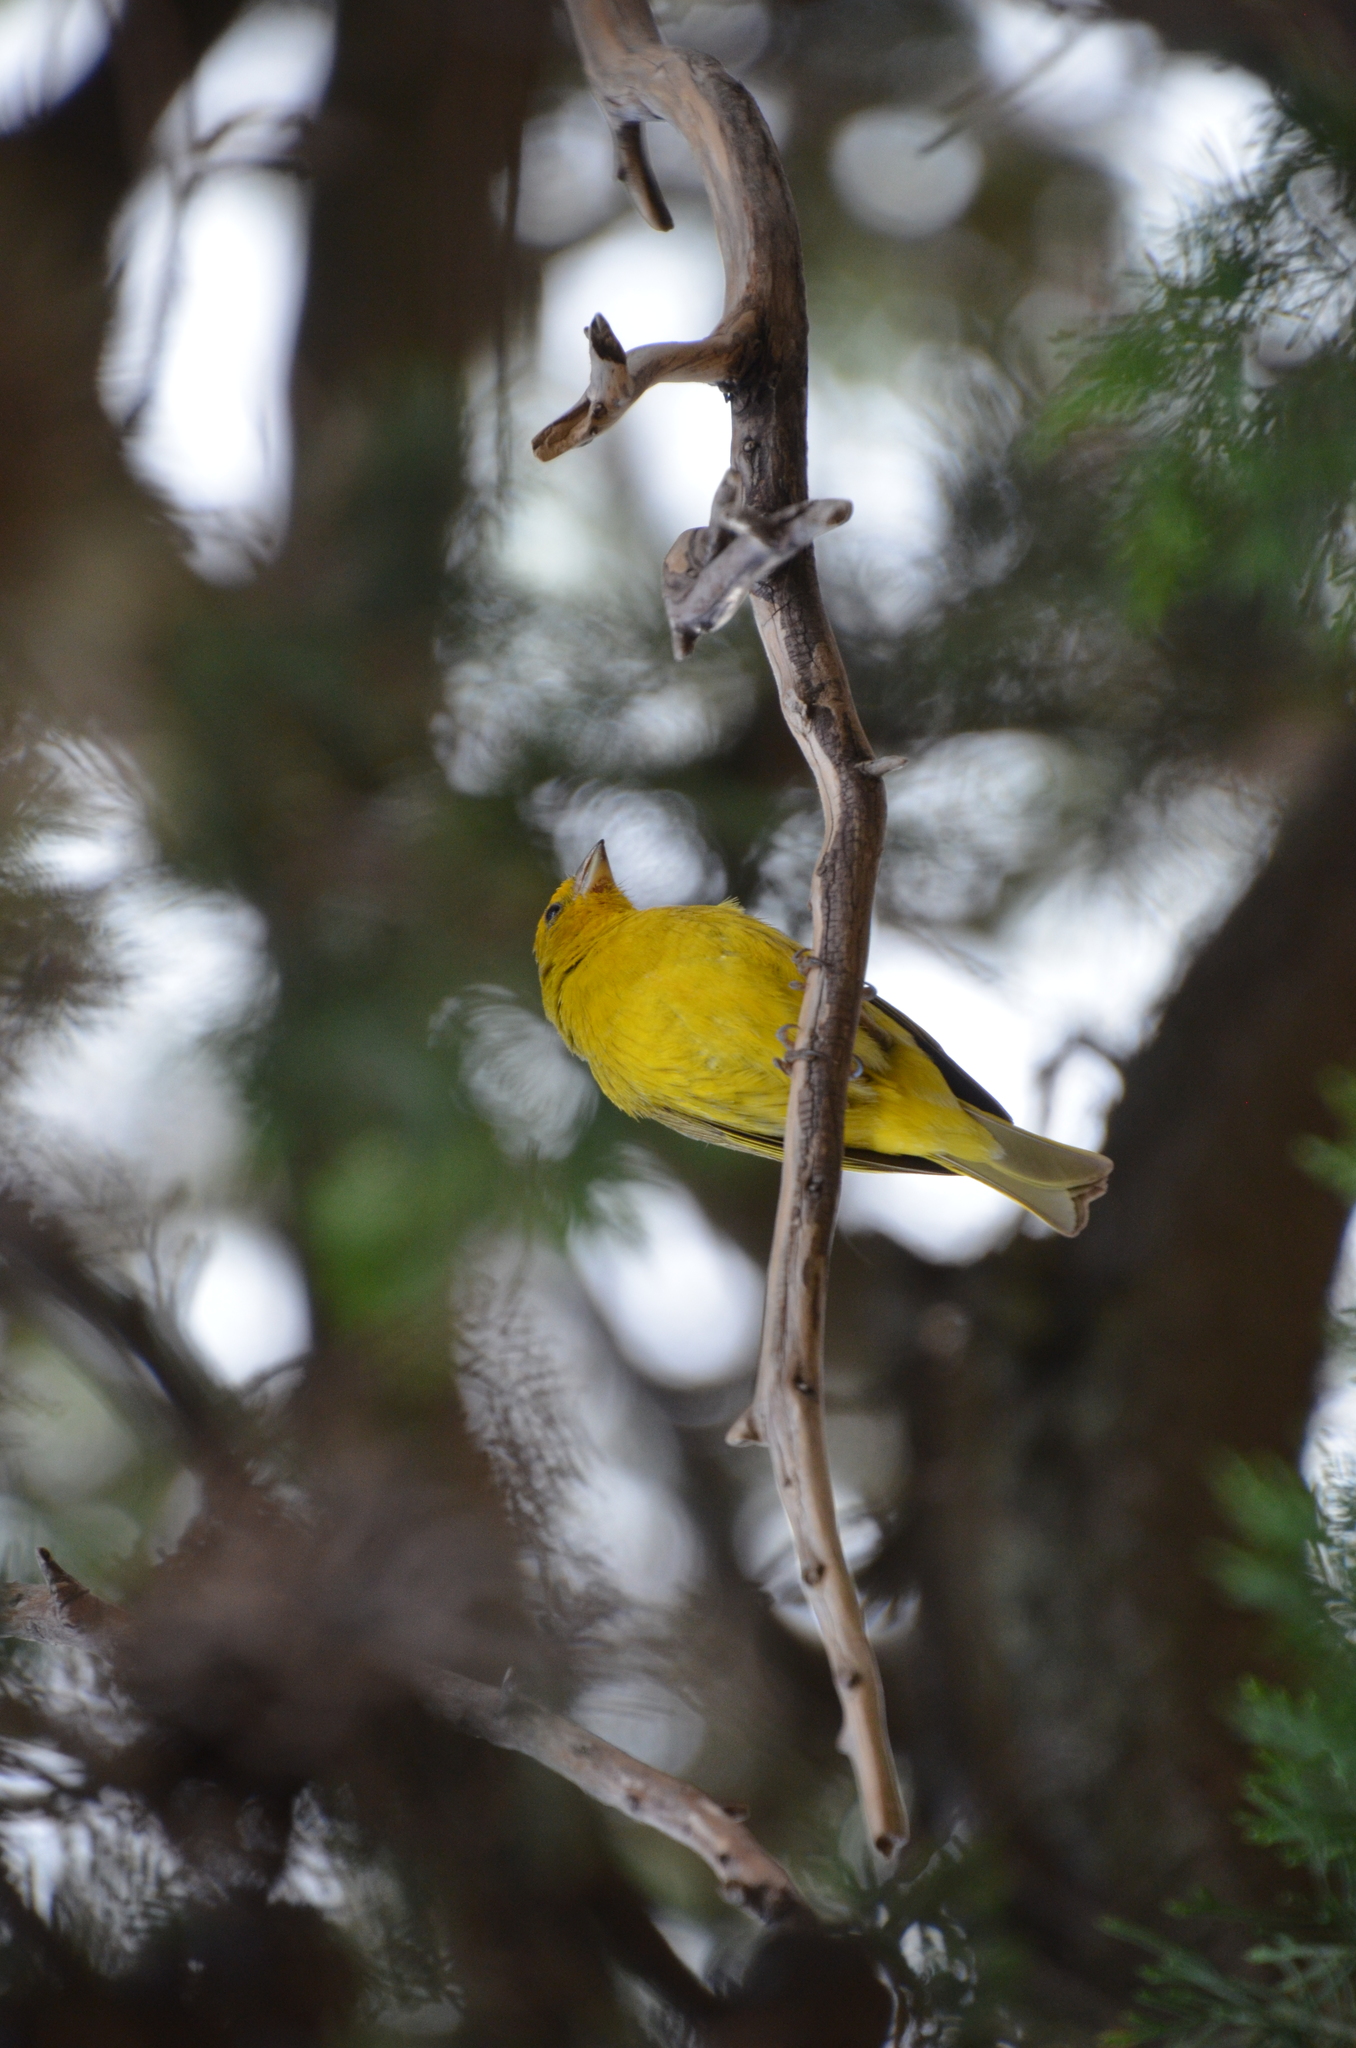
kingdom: Animalia
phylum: Chordata
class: Aves
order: Passeriformes
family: Thraupidae
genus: Sicalis
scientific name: Sicalis flaveola
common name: Saffron finch
